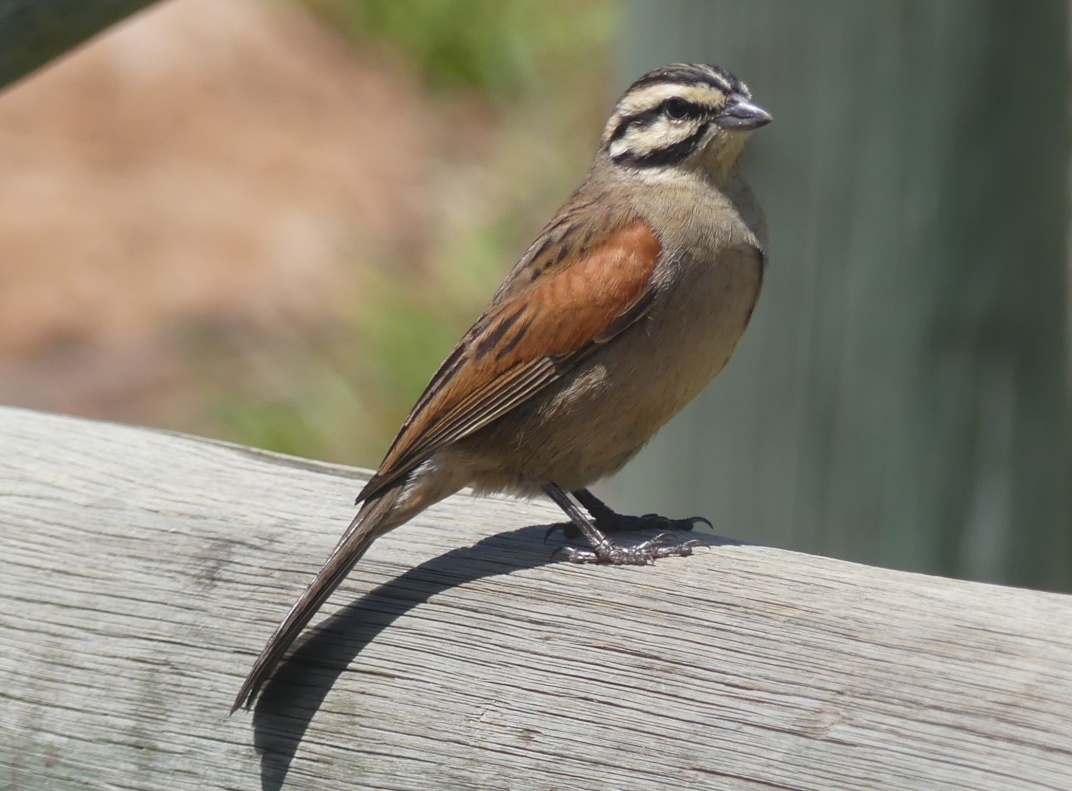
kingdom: Animalia
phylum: Chordata
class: Aves
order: Passeriformes
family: Emberizidae
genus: Emberiza
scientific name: Emberiza capensis
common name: Cape bunting
